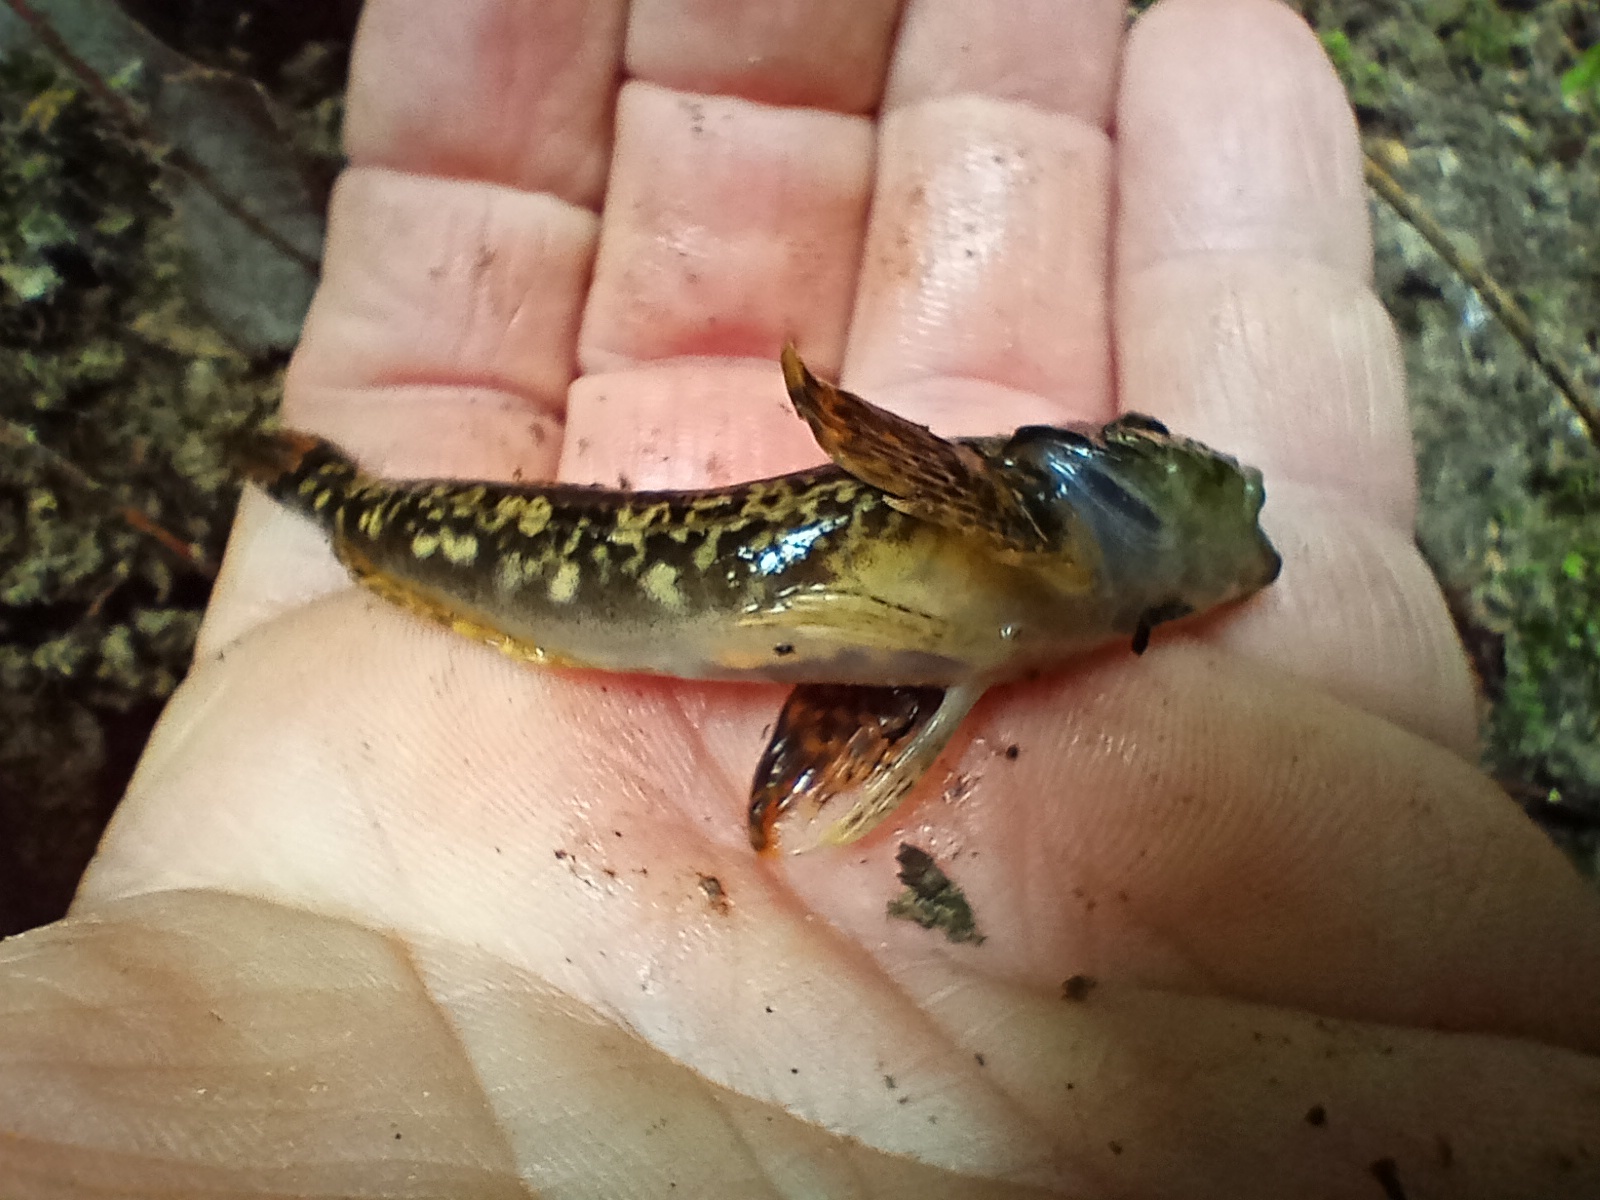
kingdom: Animalia
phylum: Chordata
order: Scorpaeniformes
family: Cottidae
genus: Cottus
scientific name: Cottus gobio
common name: Bullhead
